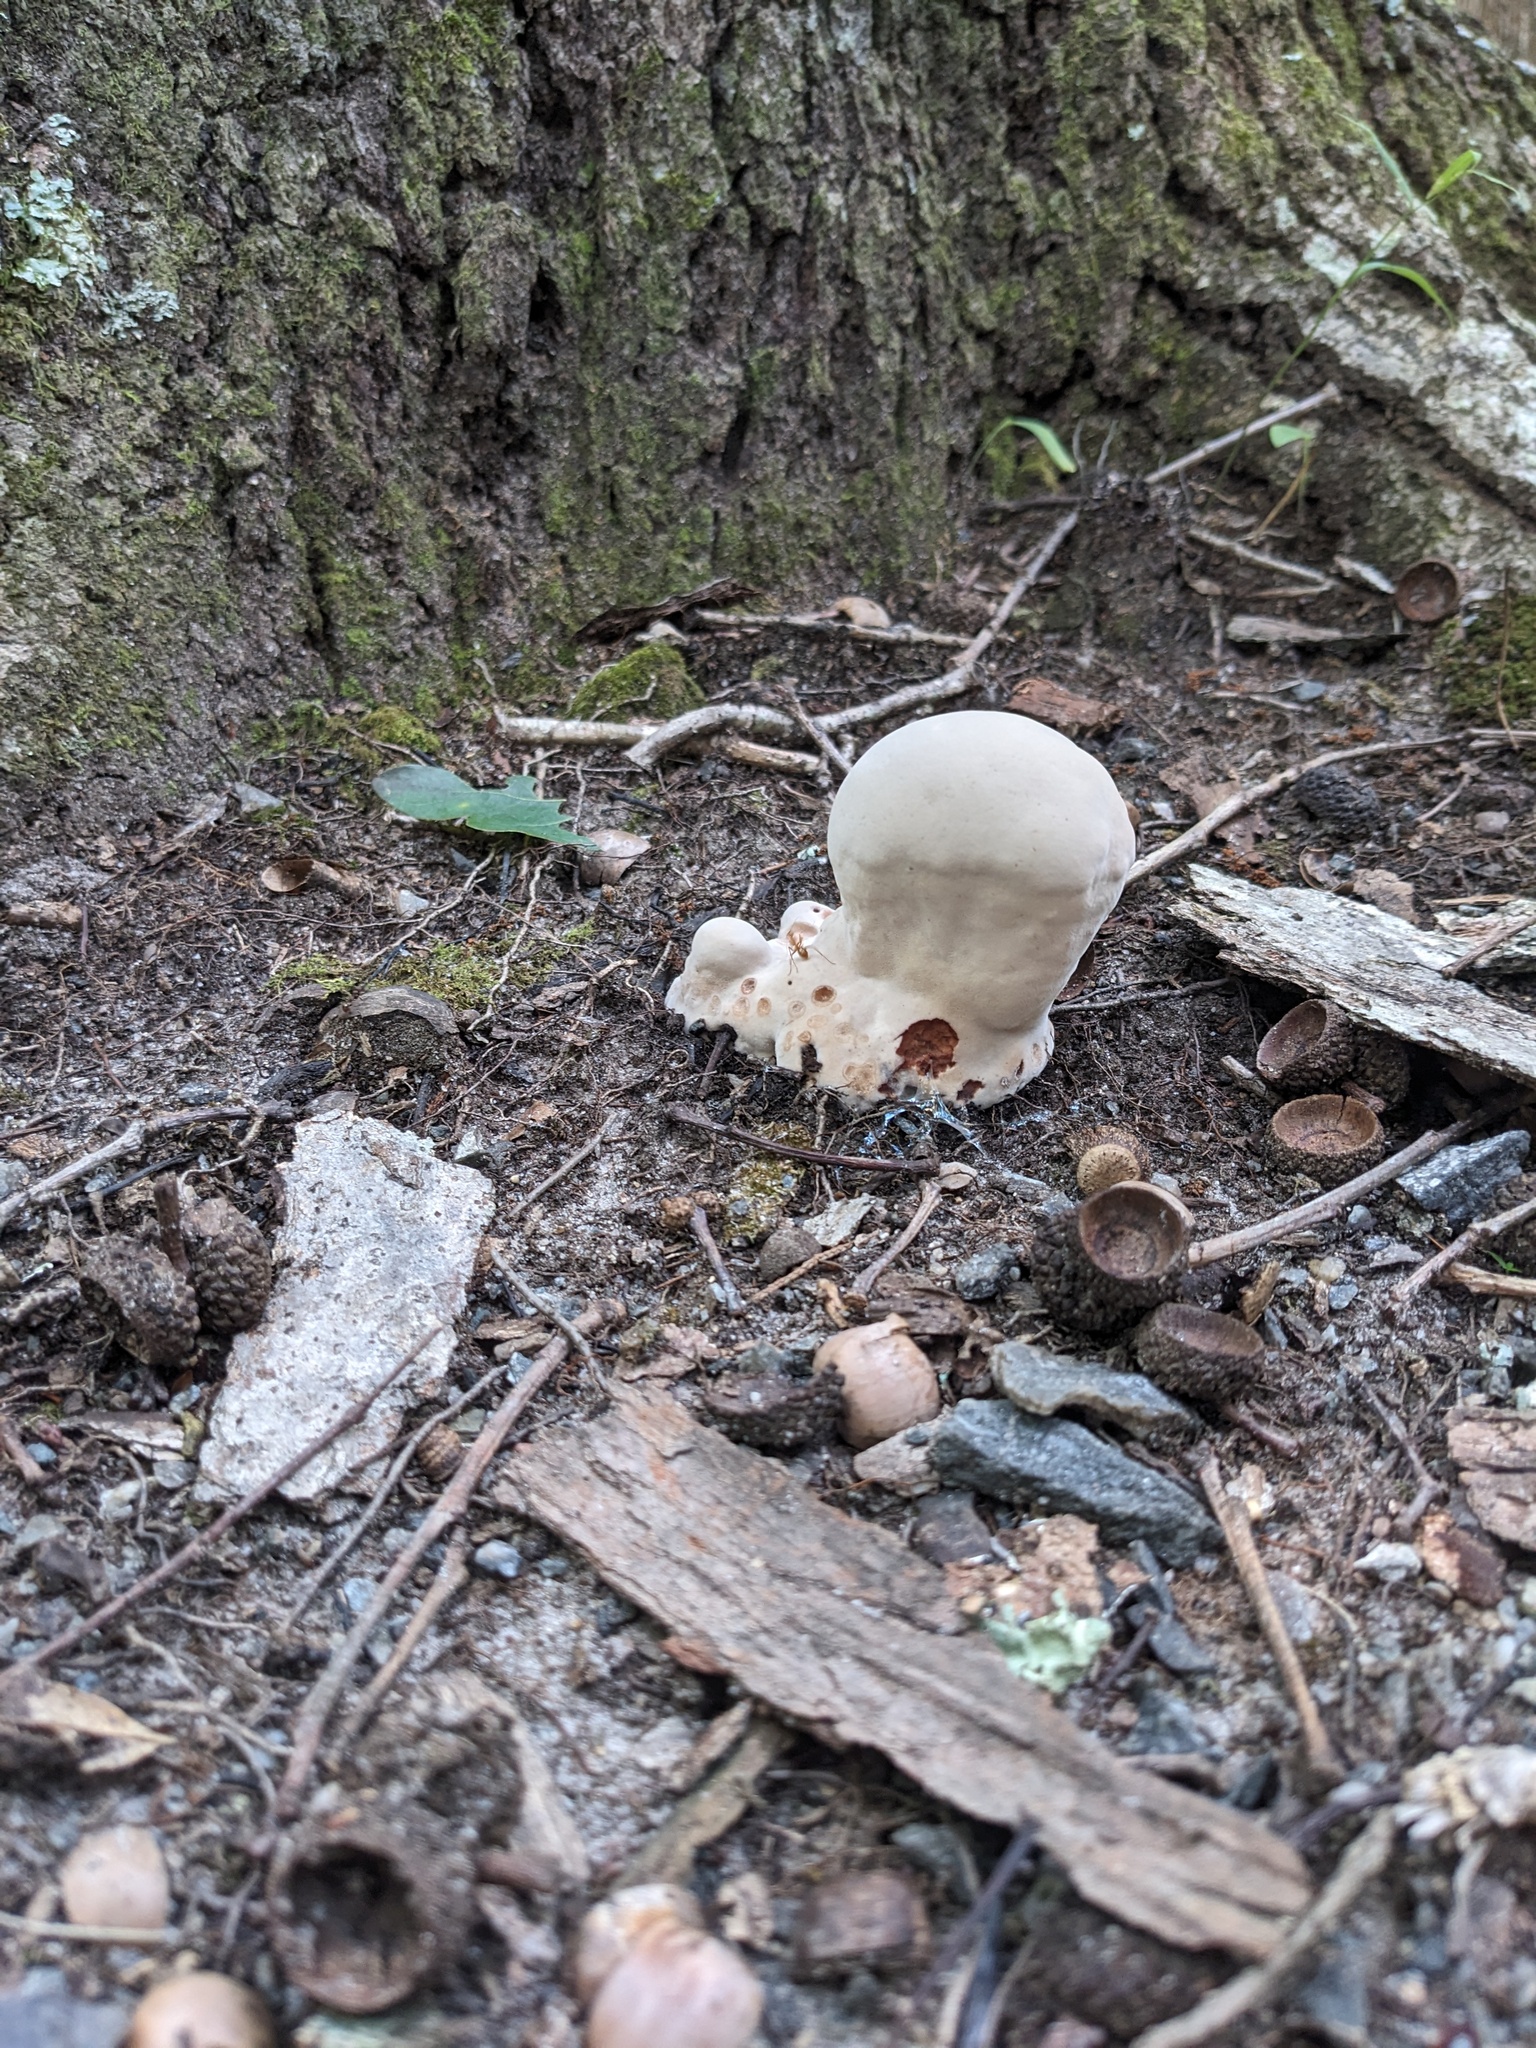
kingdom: Fungi
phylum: Basidiomycota
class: Agaricomycetes
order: Polyporales
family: Laetiporaceae
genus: Berkcurtia
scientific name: Berkcurtia persicina
